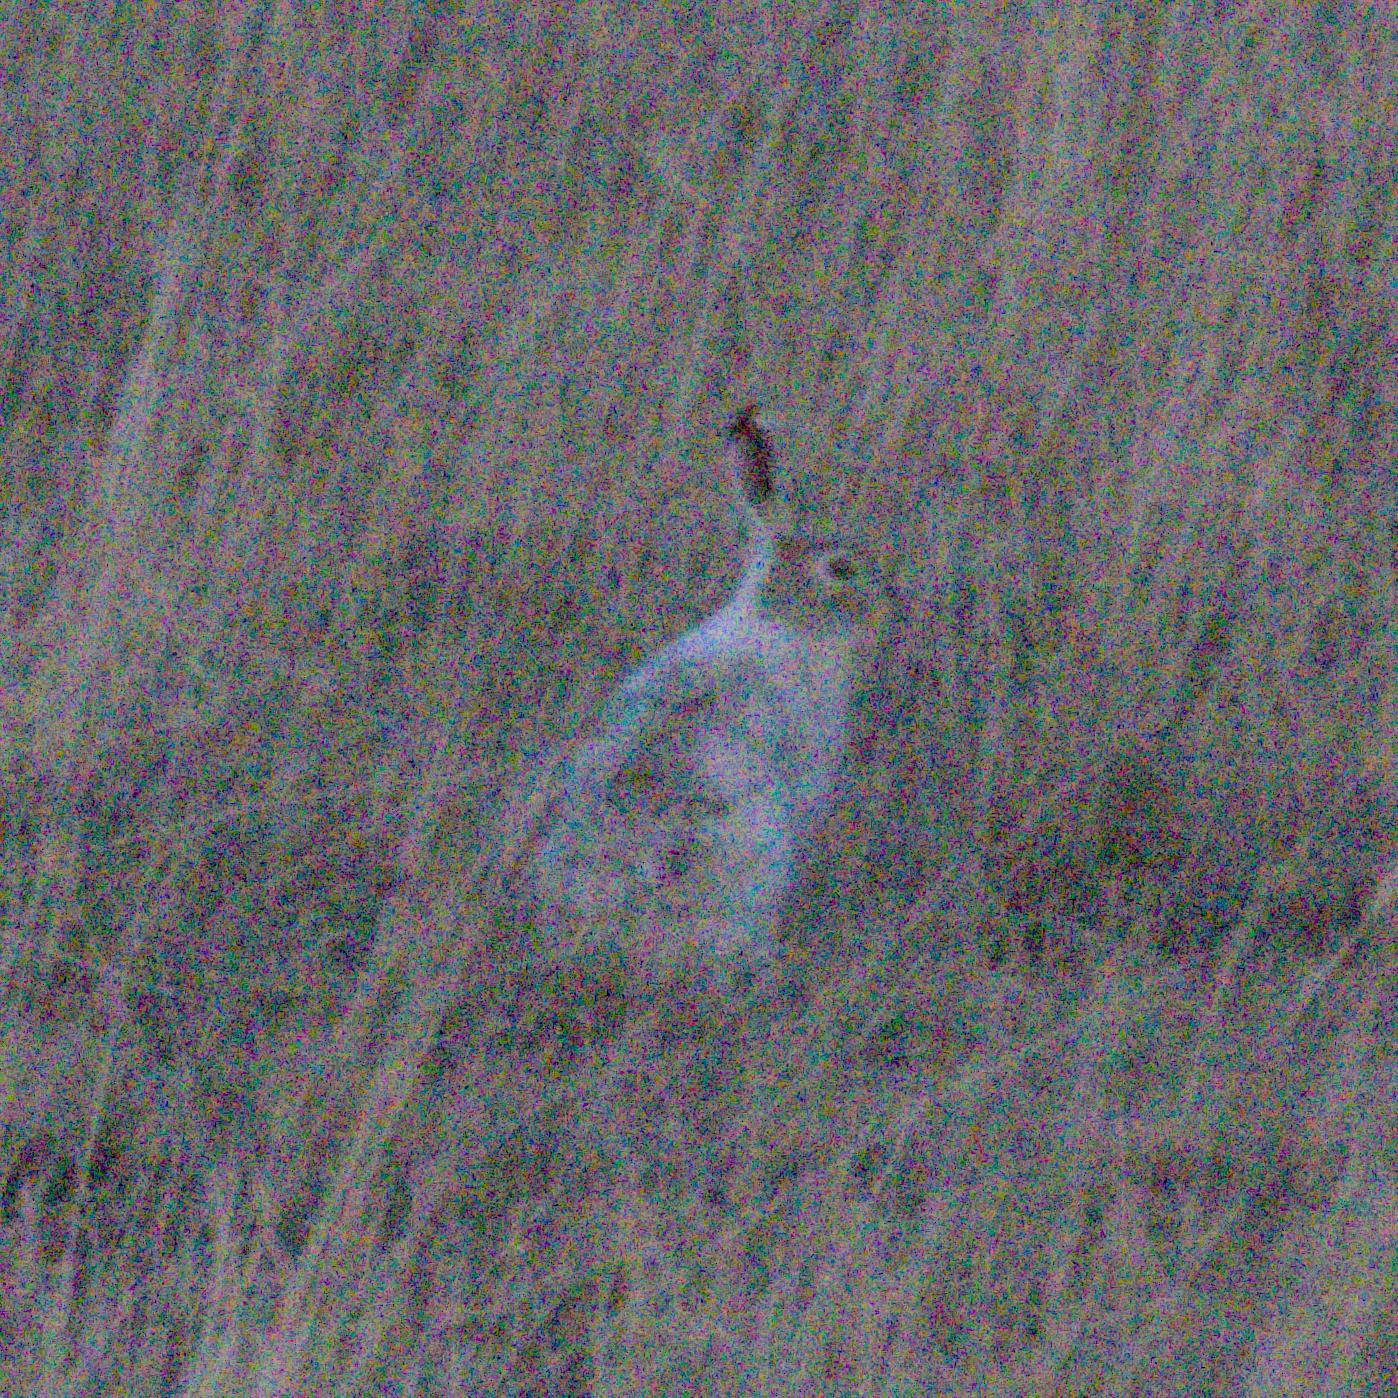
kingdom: Animalia
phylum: Chordata
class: Mammalia
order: Lagomorpha
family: Leporidae
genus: Lepus
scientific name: Lepus townsendii
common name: White-tailed jackrabbit
